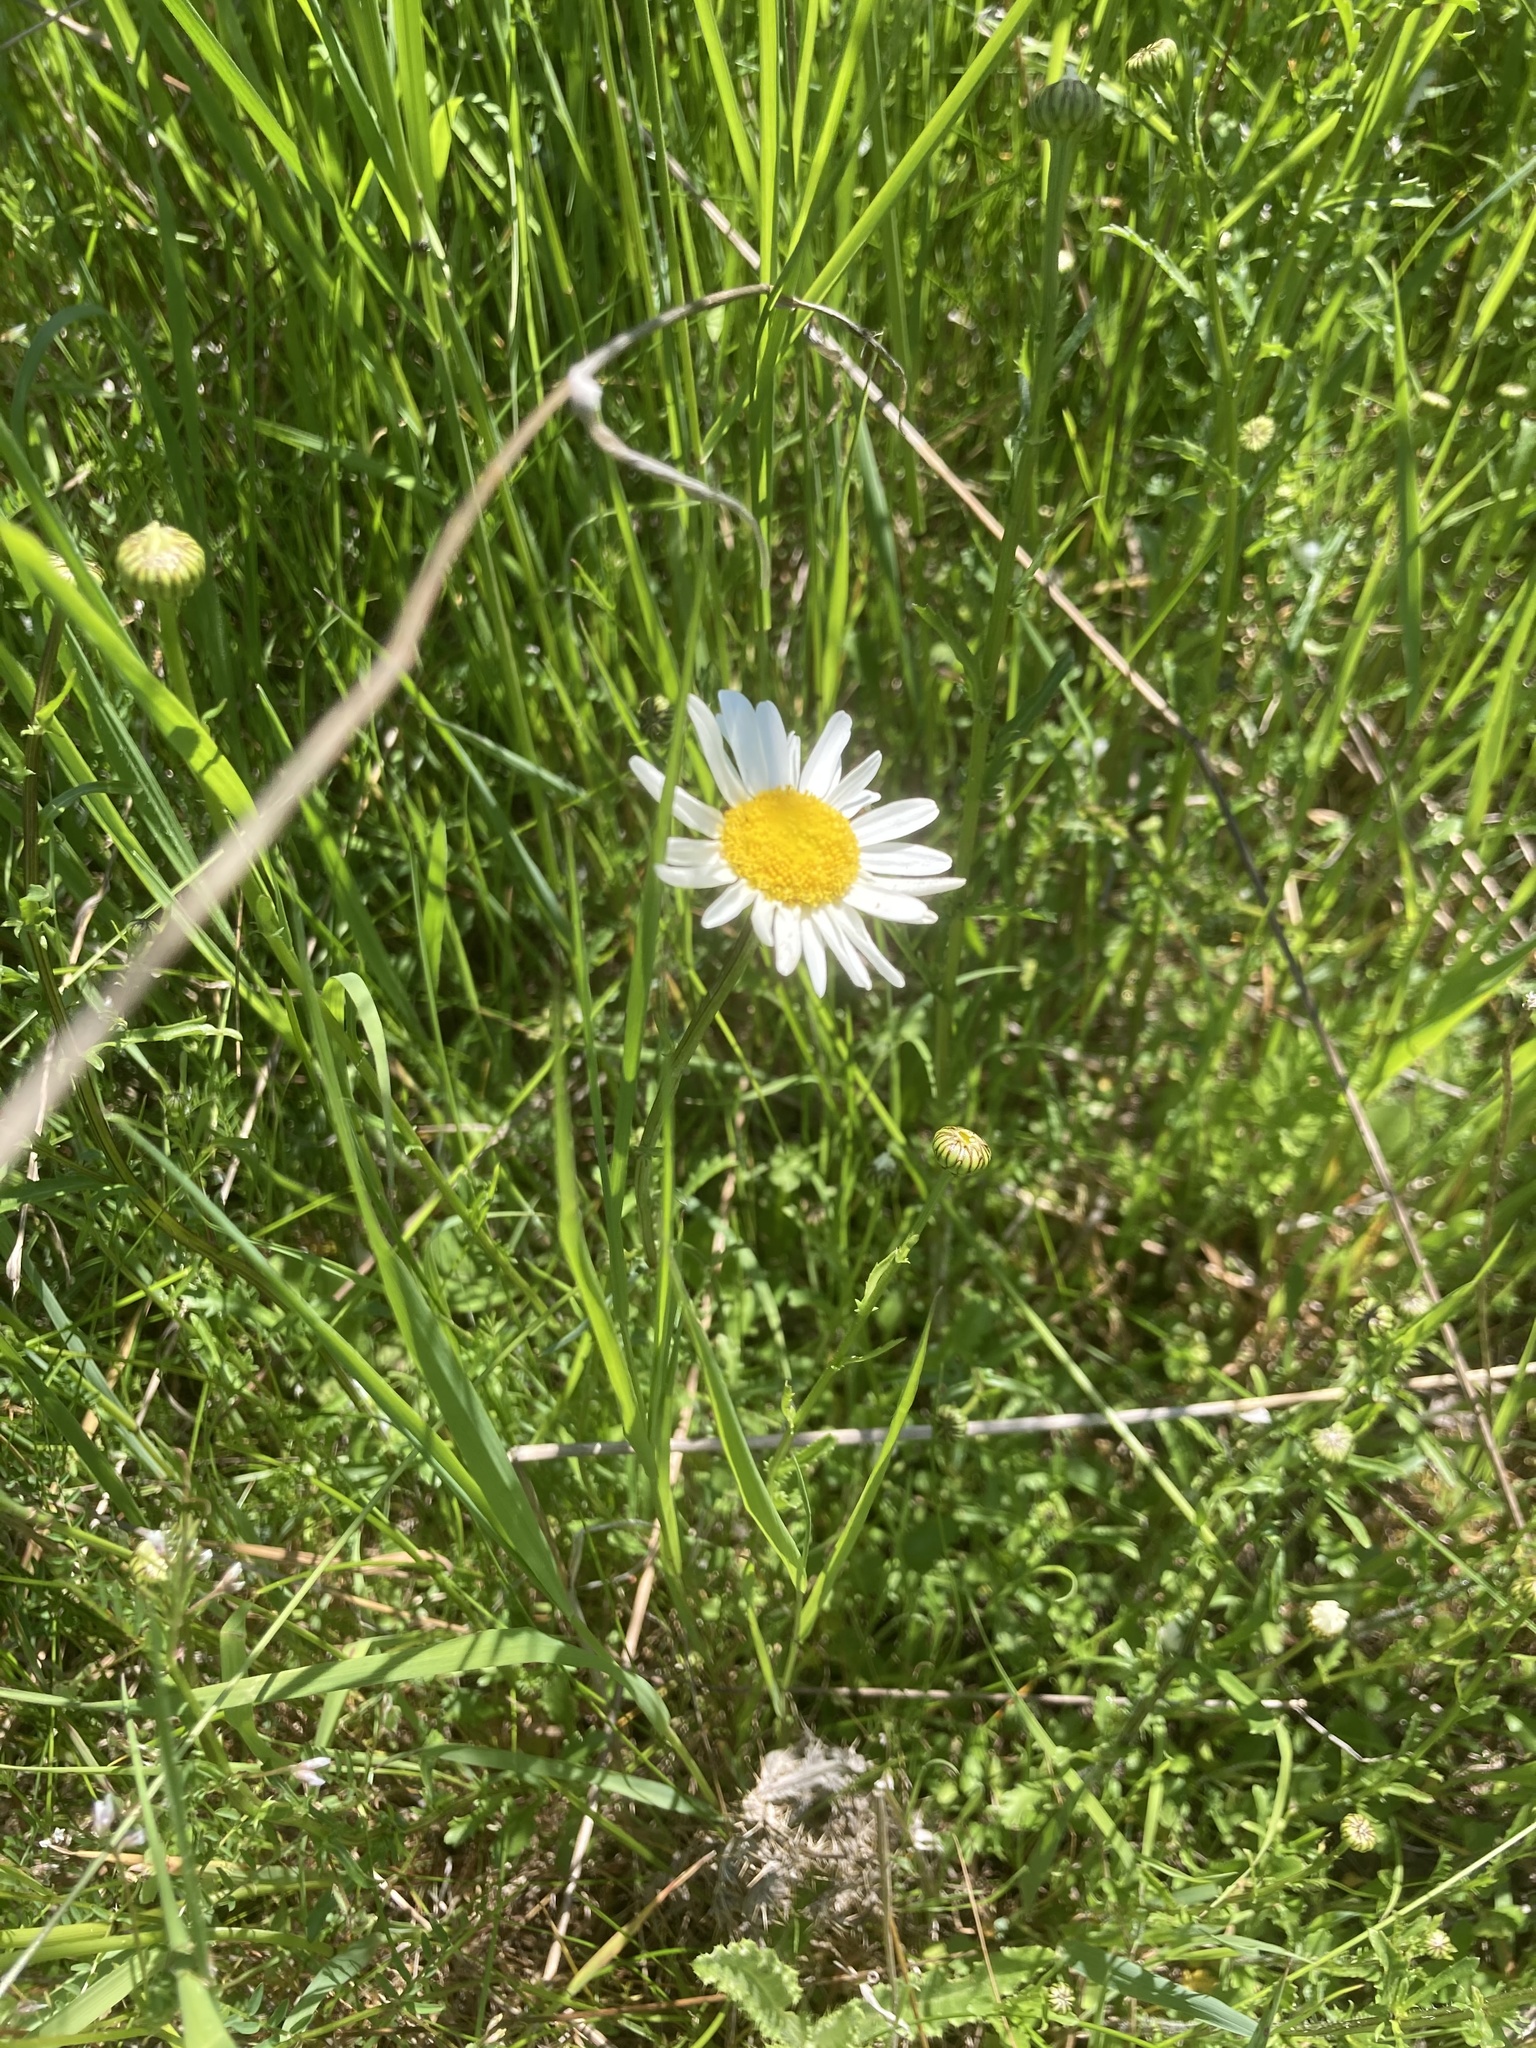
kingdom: Plantae
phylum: Tracheophyta
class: Magnoliopsida
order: Asterales
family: Asteraceae
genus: Leucanthemum
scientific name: Leucanthemum vulgare
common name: Oxeye daisy
